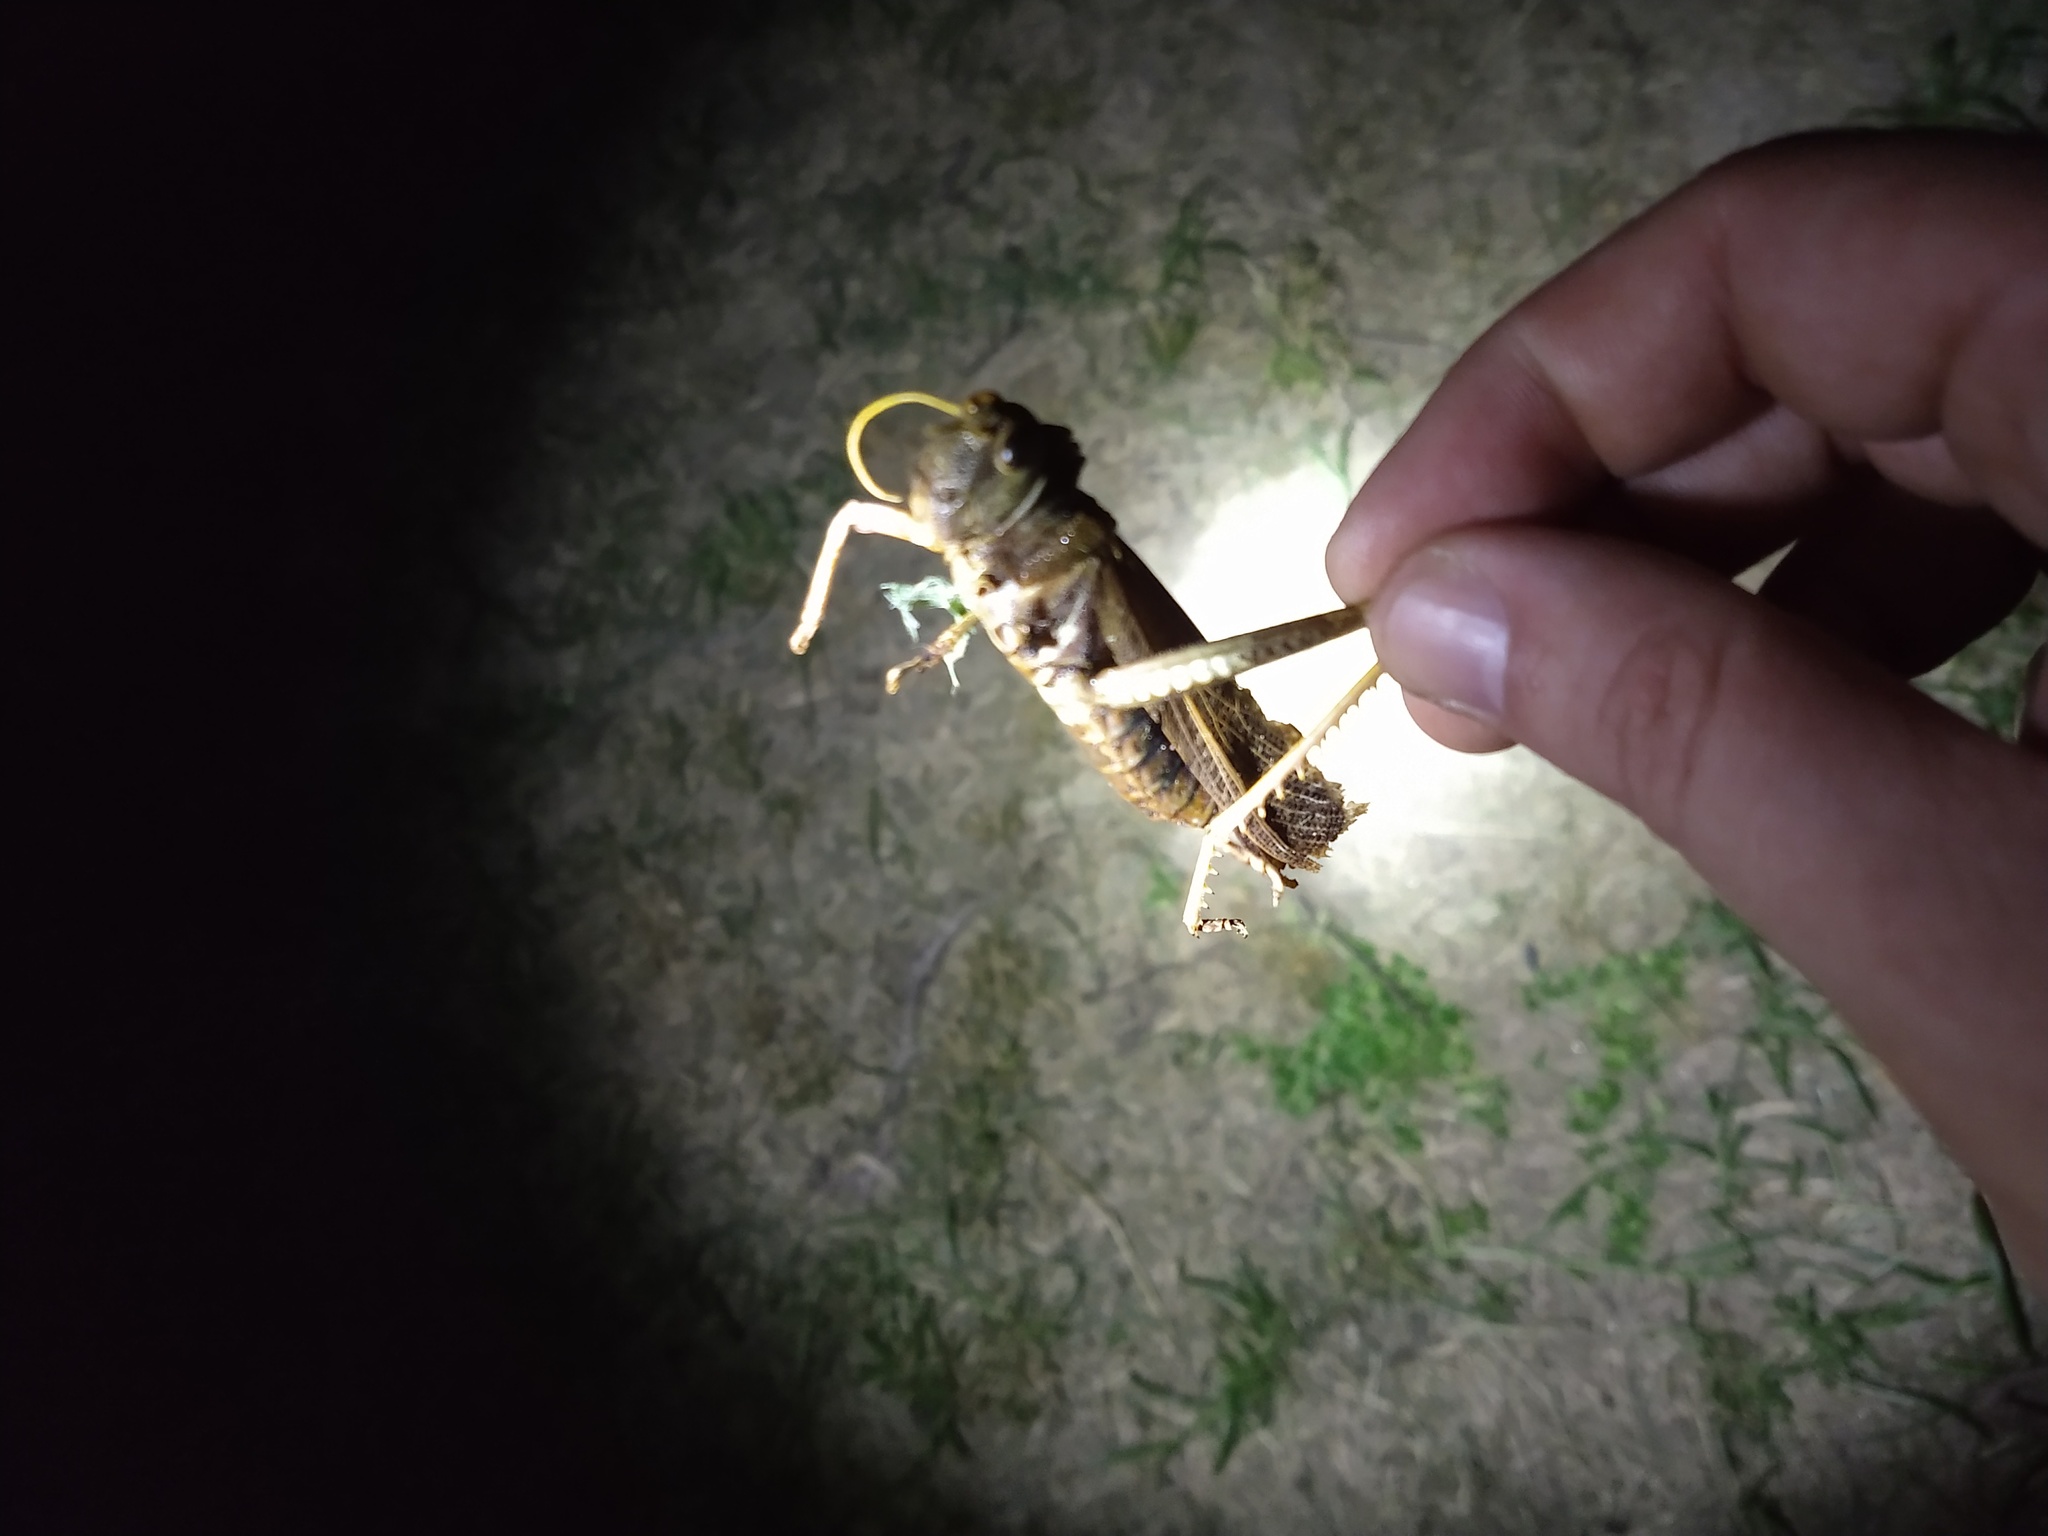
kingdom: Animalia
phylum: Arthropoda
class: Insecta
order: Orthoptera
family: Romaleidae
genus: Tropidacris
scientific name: Tropidacris collaris
